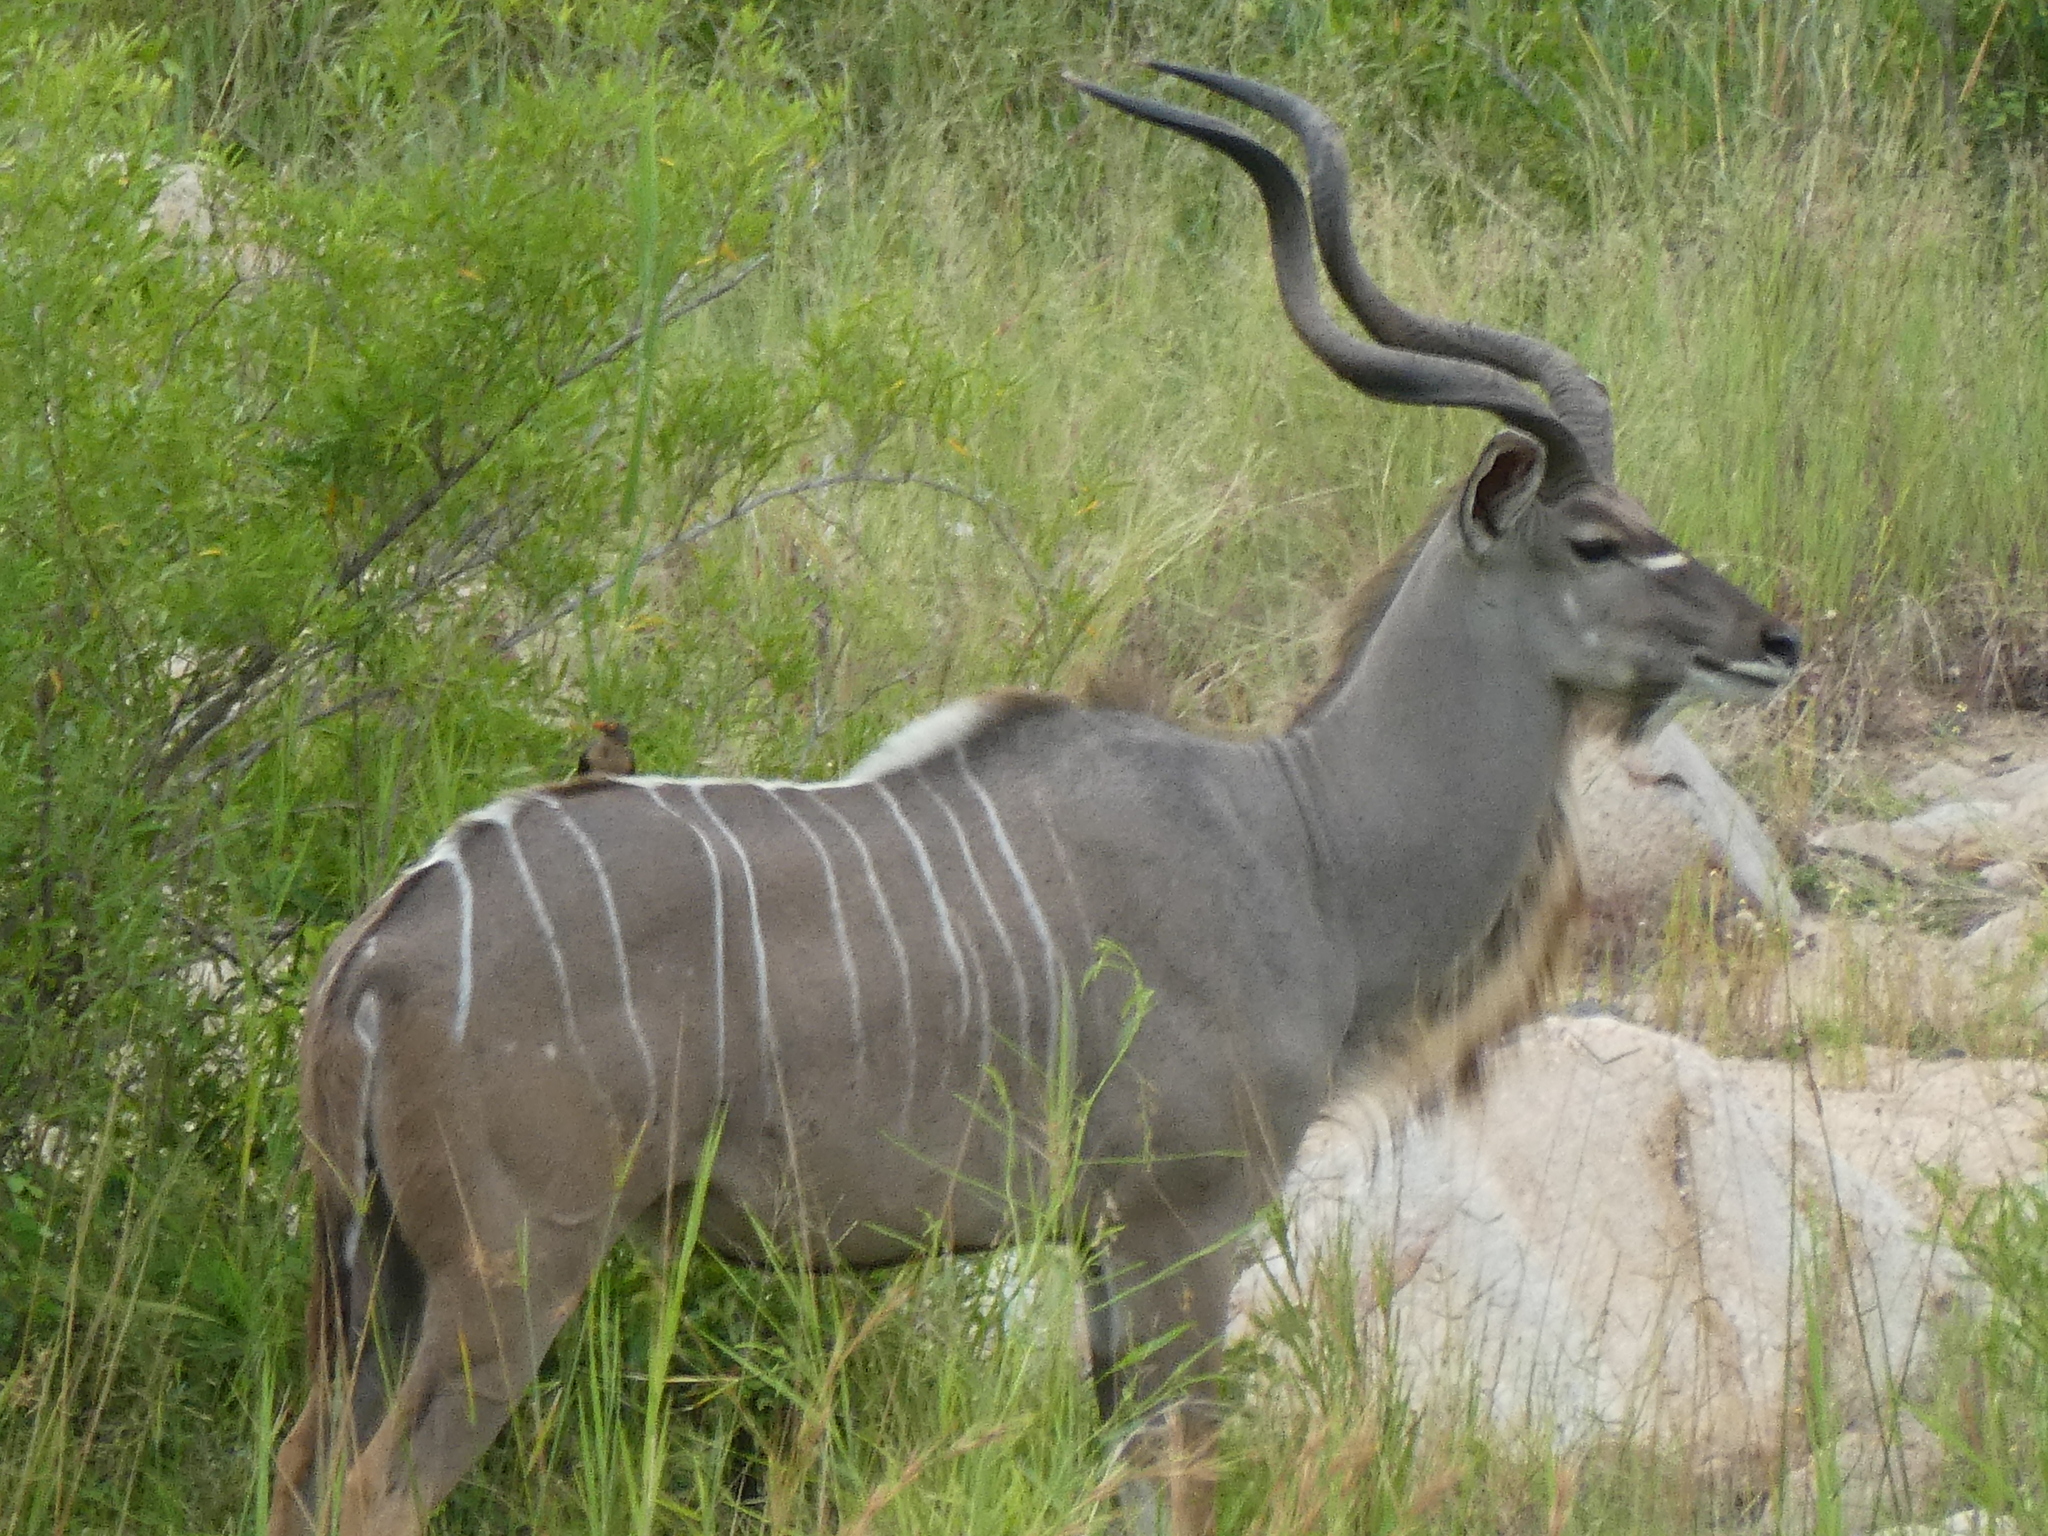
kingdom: Animalia
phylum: Chordata
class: Mammalia
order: Artiodactyla
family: Bovidae
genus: Tragelaphus
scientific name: Tragelaphus strepsiceros
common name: Greater kudu
